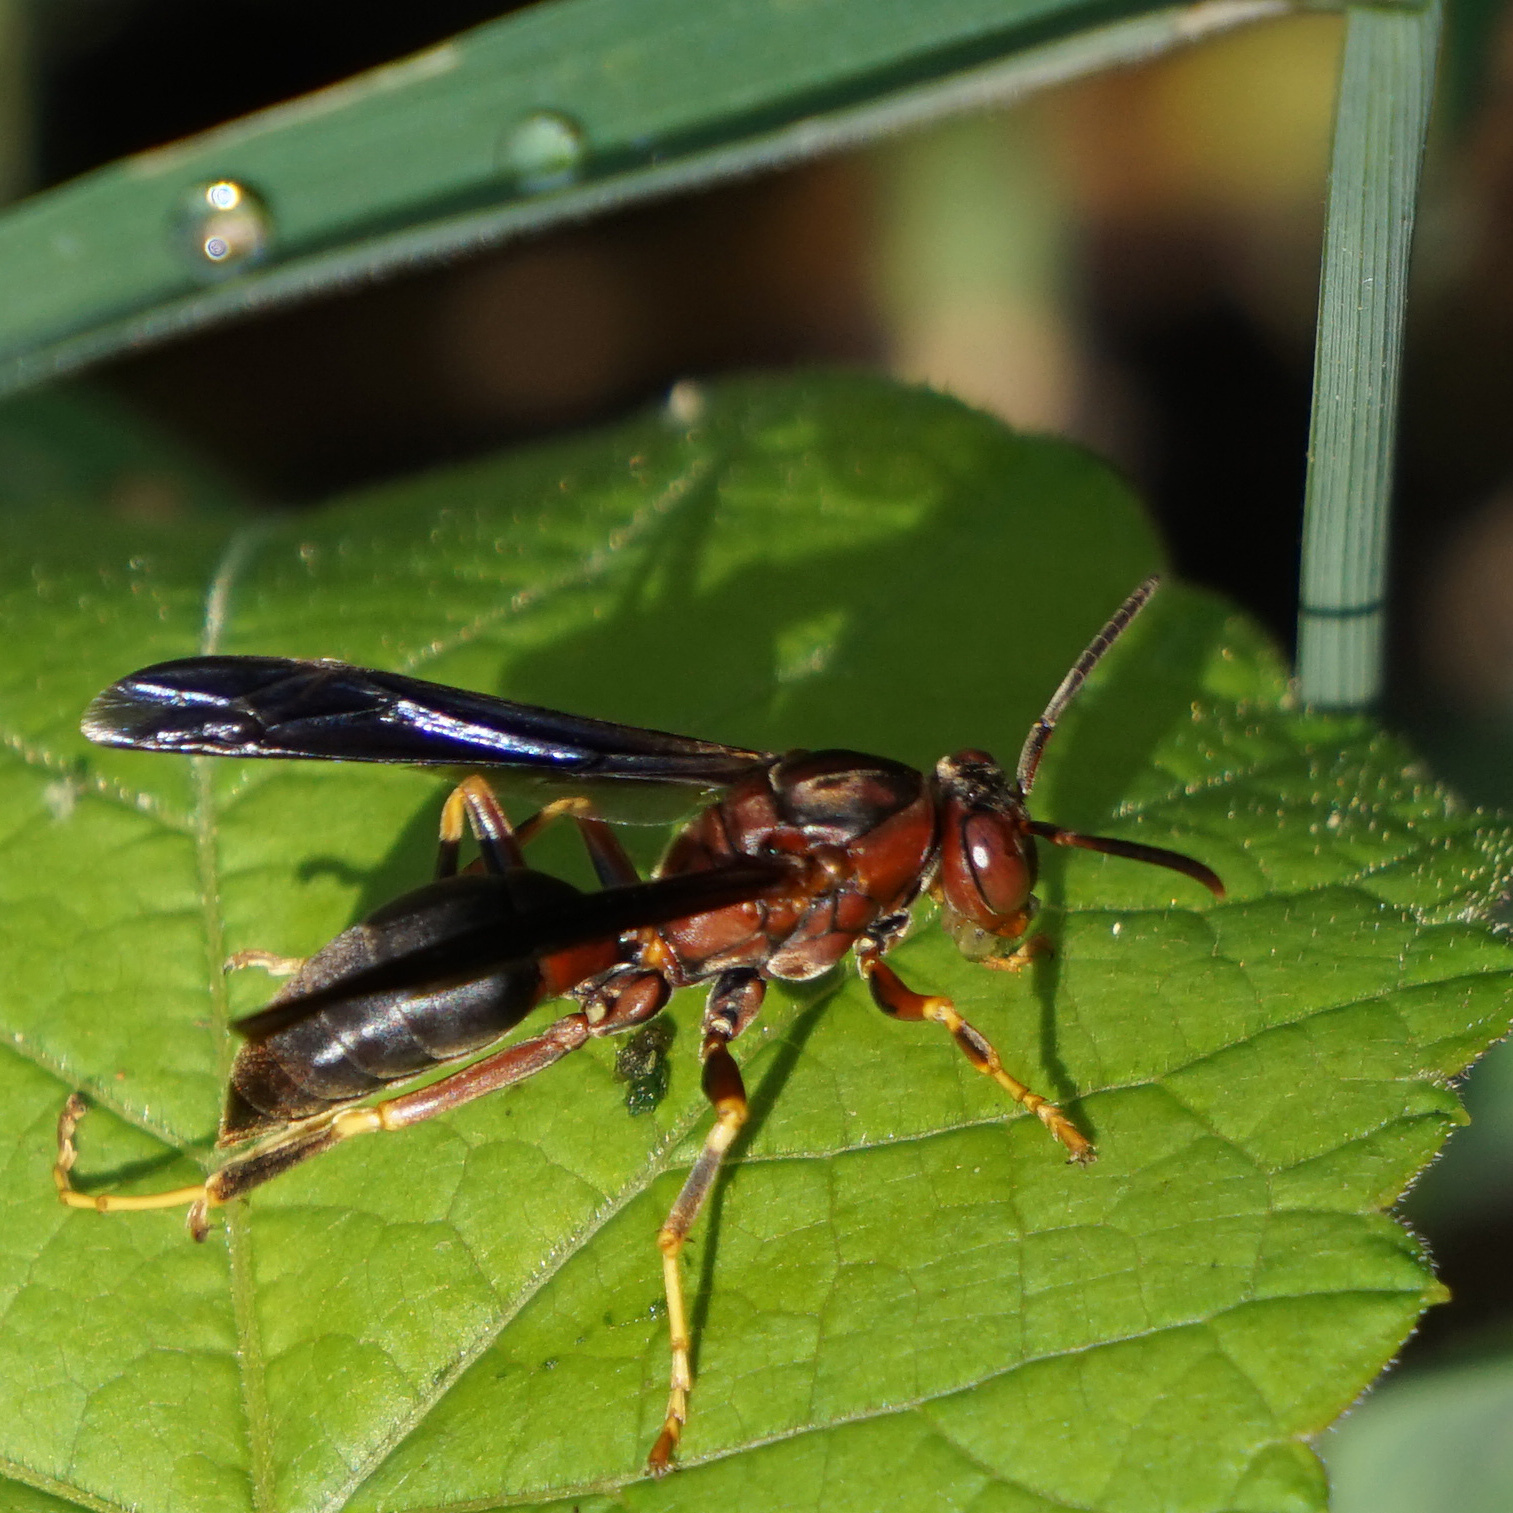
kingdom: Animalia
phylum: Arthropoda
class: Insecta
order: Hymenoptera
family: Eumenidae
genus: Polistes
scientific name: Polistes metricus
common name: Metric paper wasp
